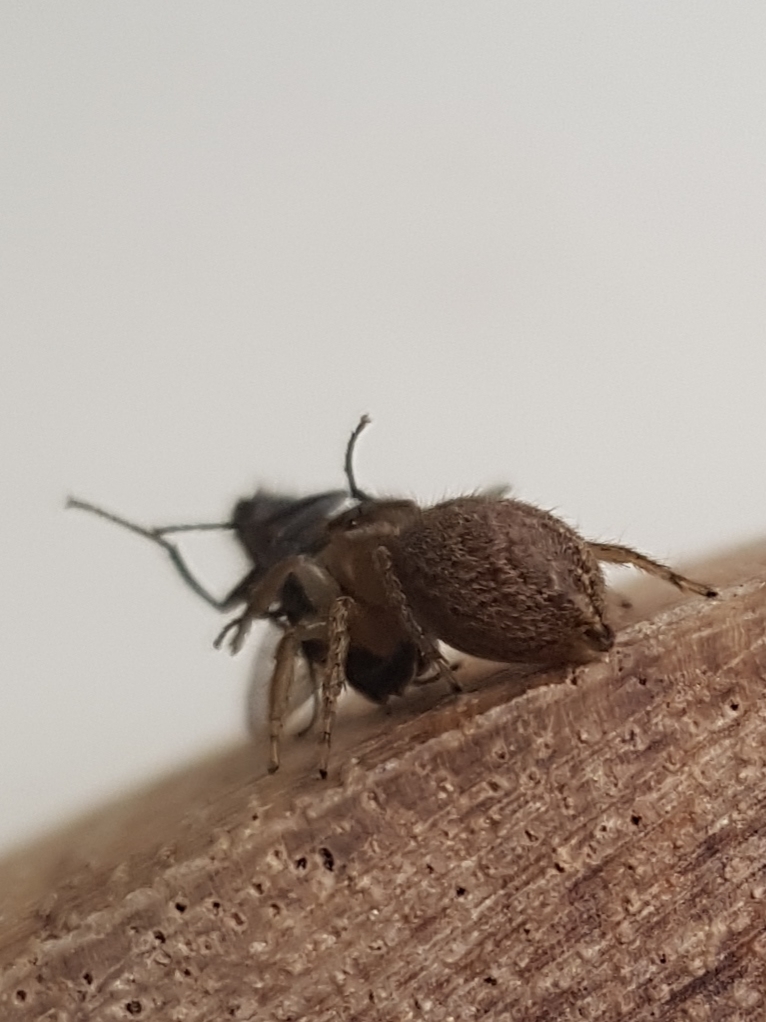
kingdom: Animalia
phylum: Arthropoda
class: Arachnida
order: Araneae
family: Salticidae
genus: Maratus
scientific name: Maratus griseus
